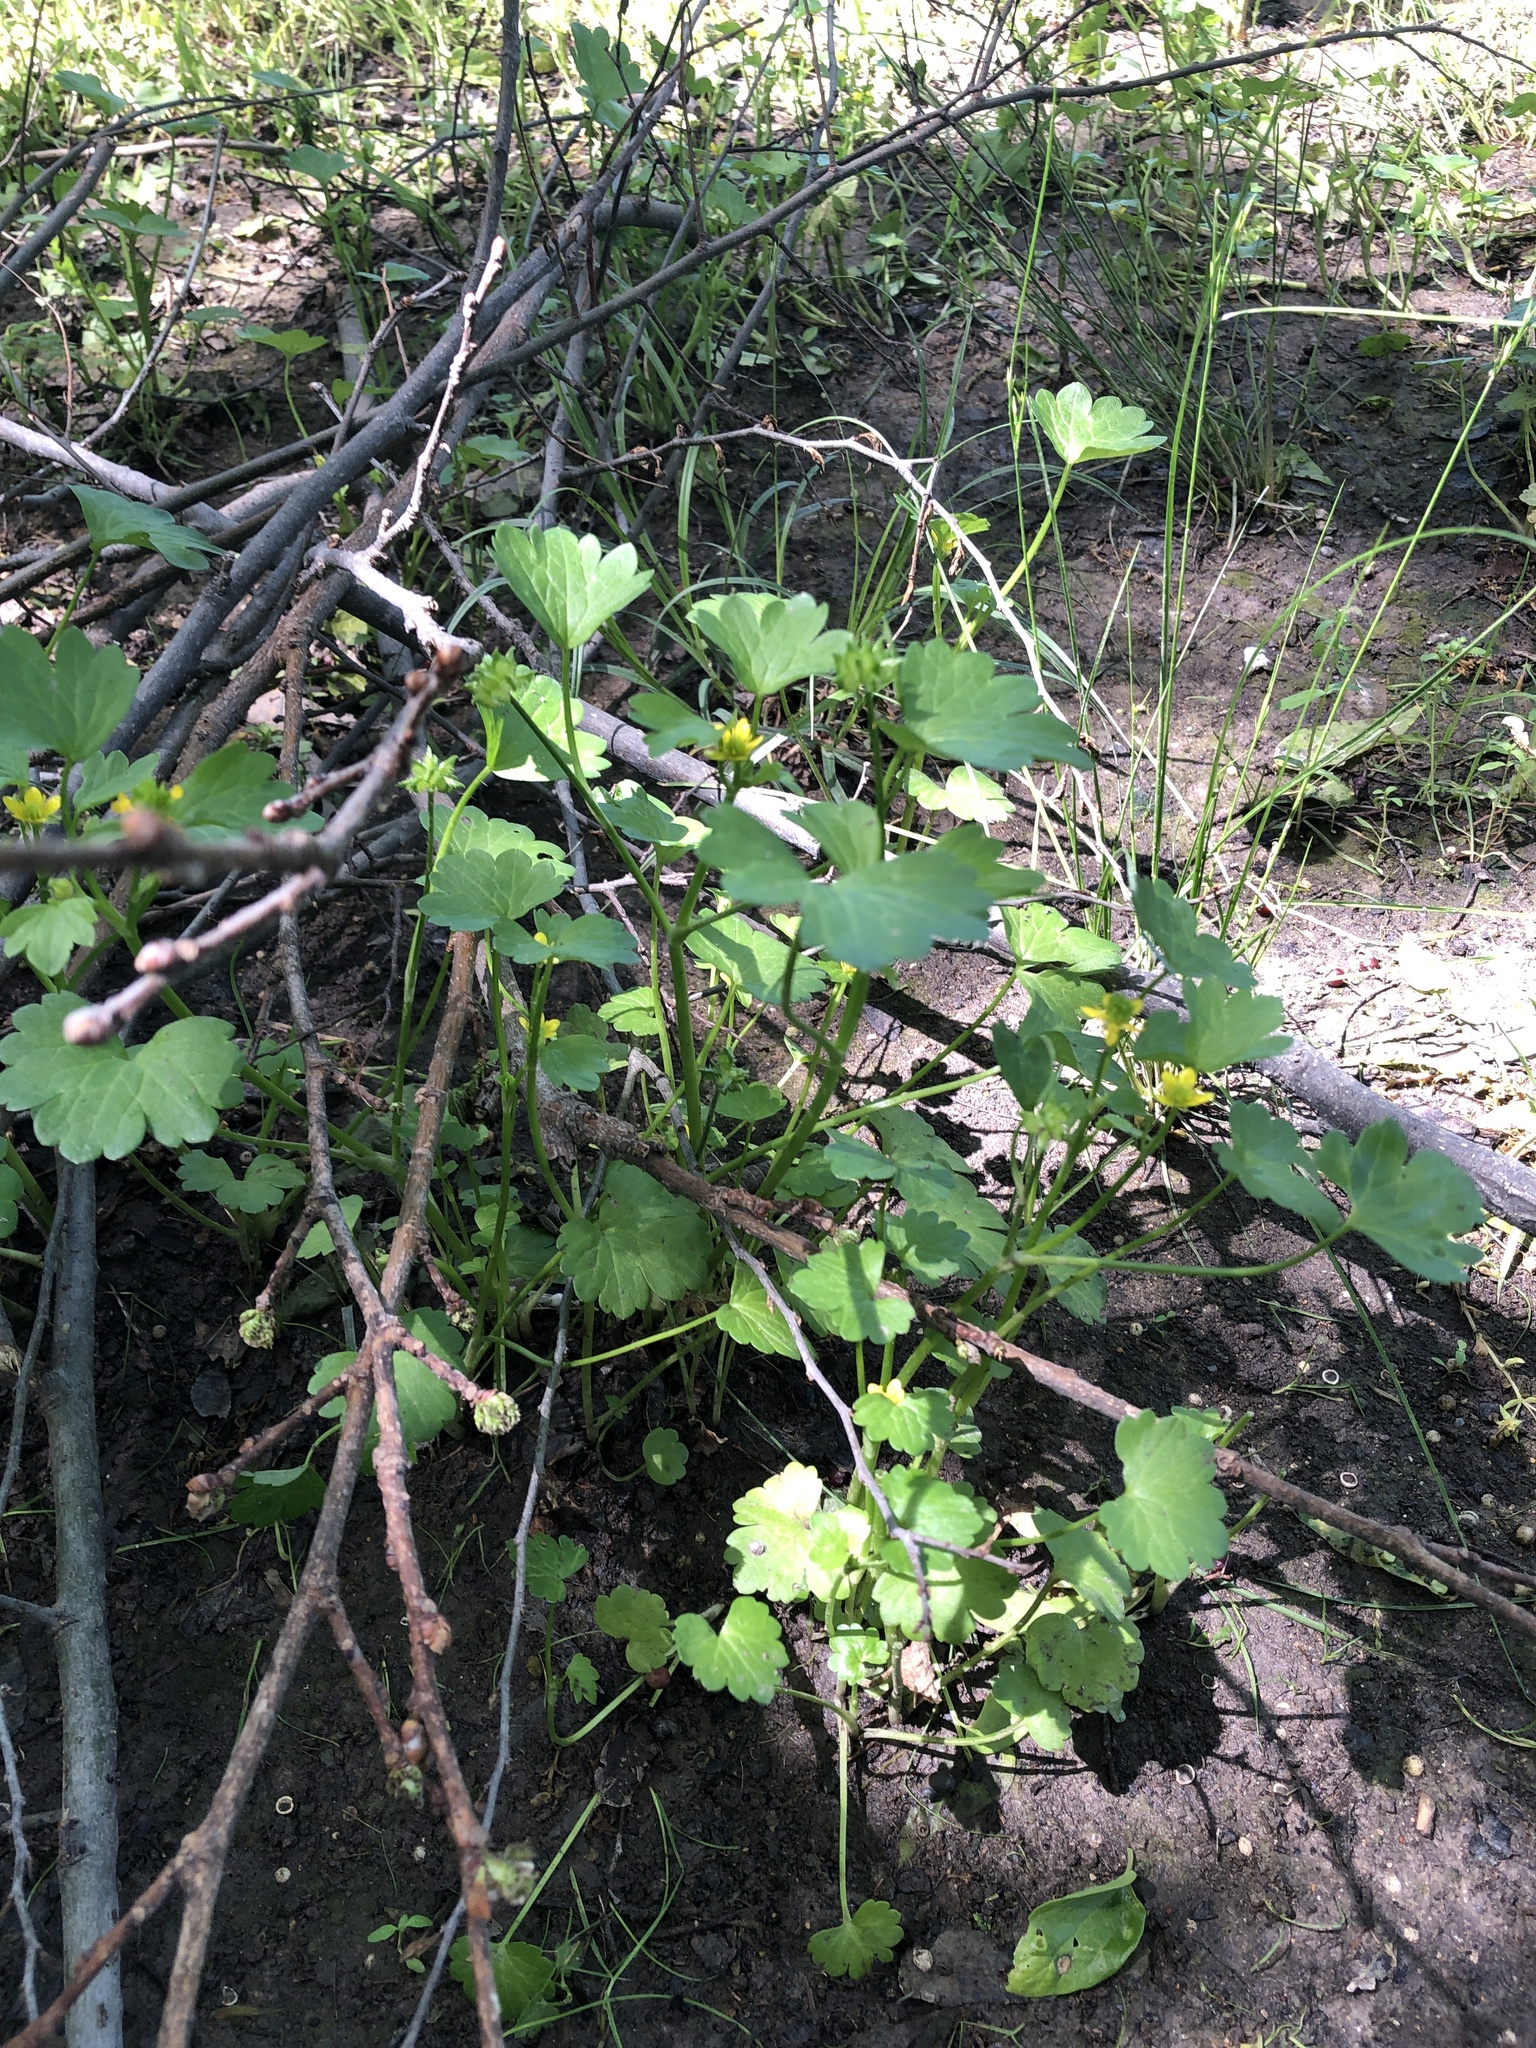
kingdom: Plantae
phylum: Tracheophyta
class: Magnoliopsida
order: Ranunculales
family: Ranunculaceae
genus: Ranunculus
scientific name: Ranunculus muricatus
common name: Rough-fruited buttercup
